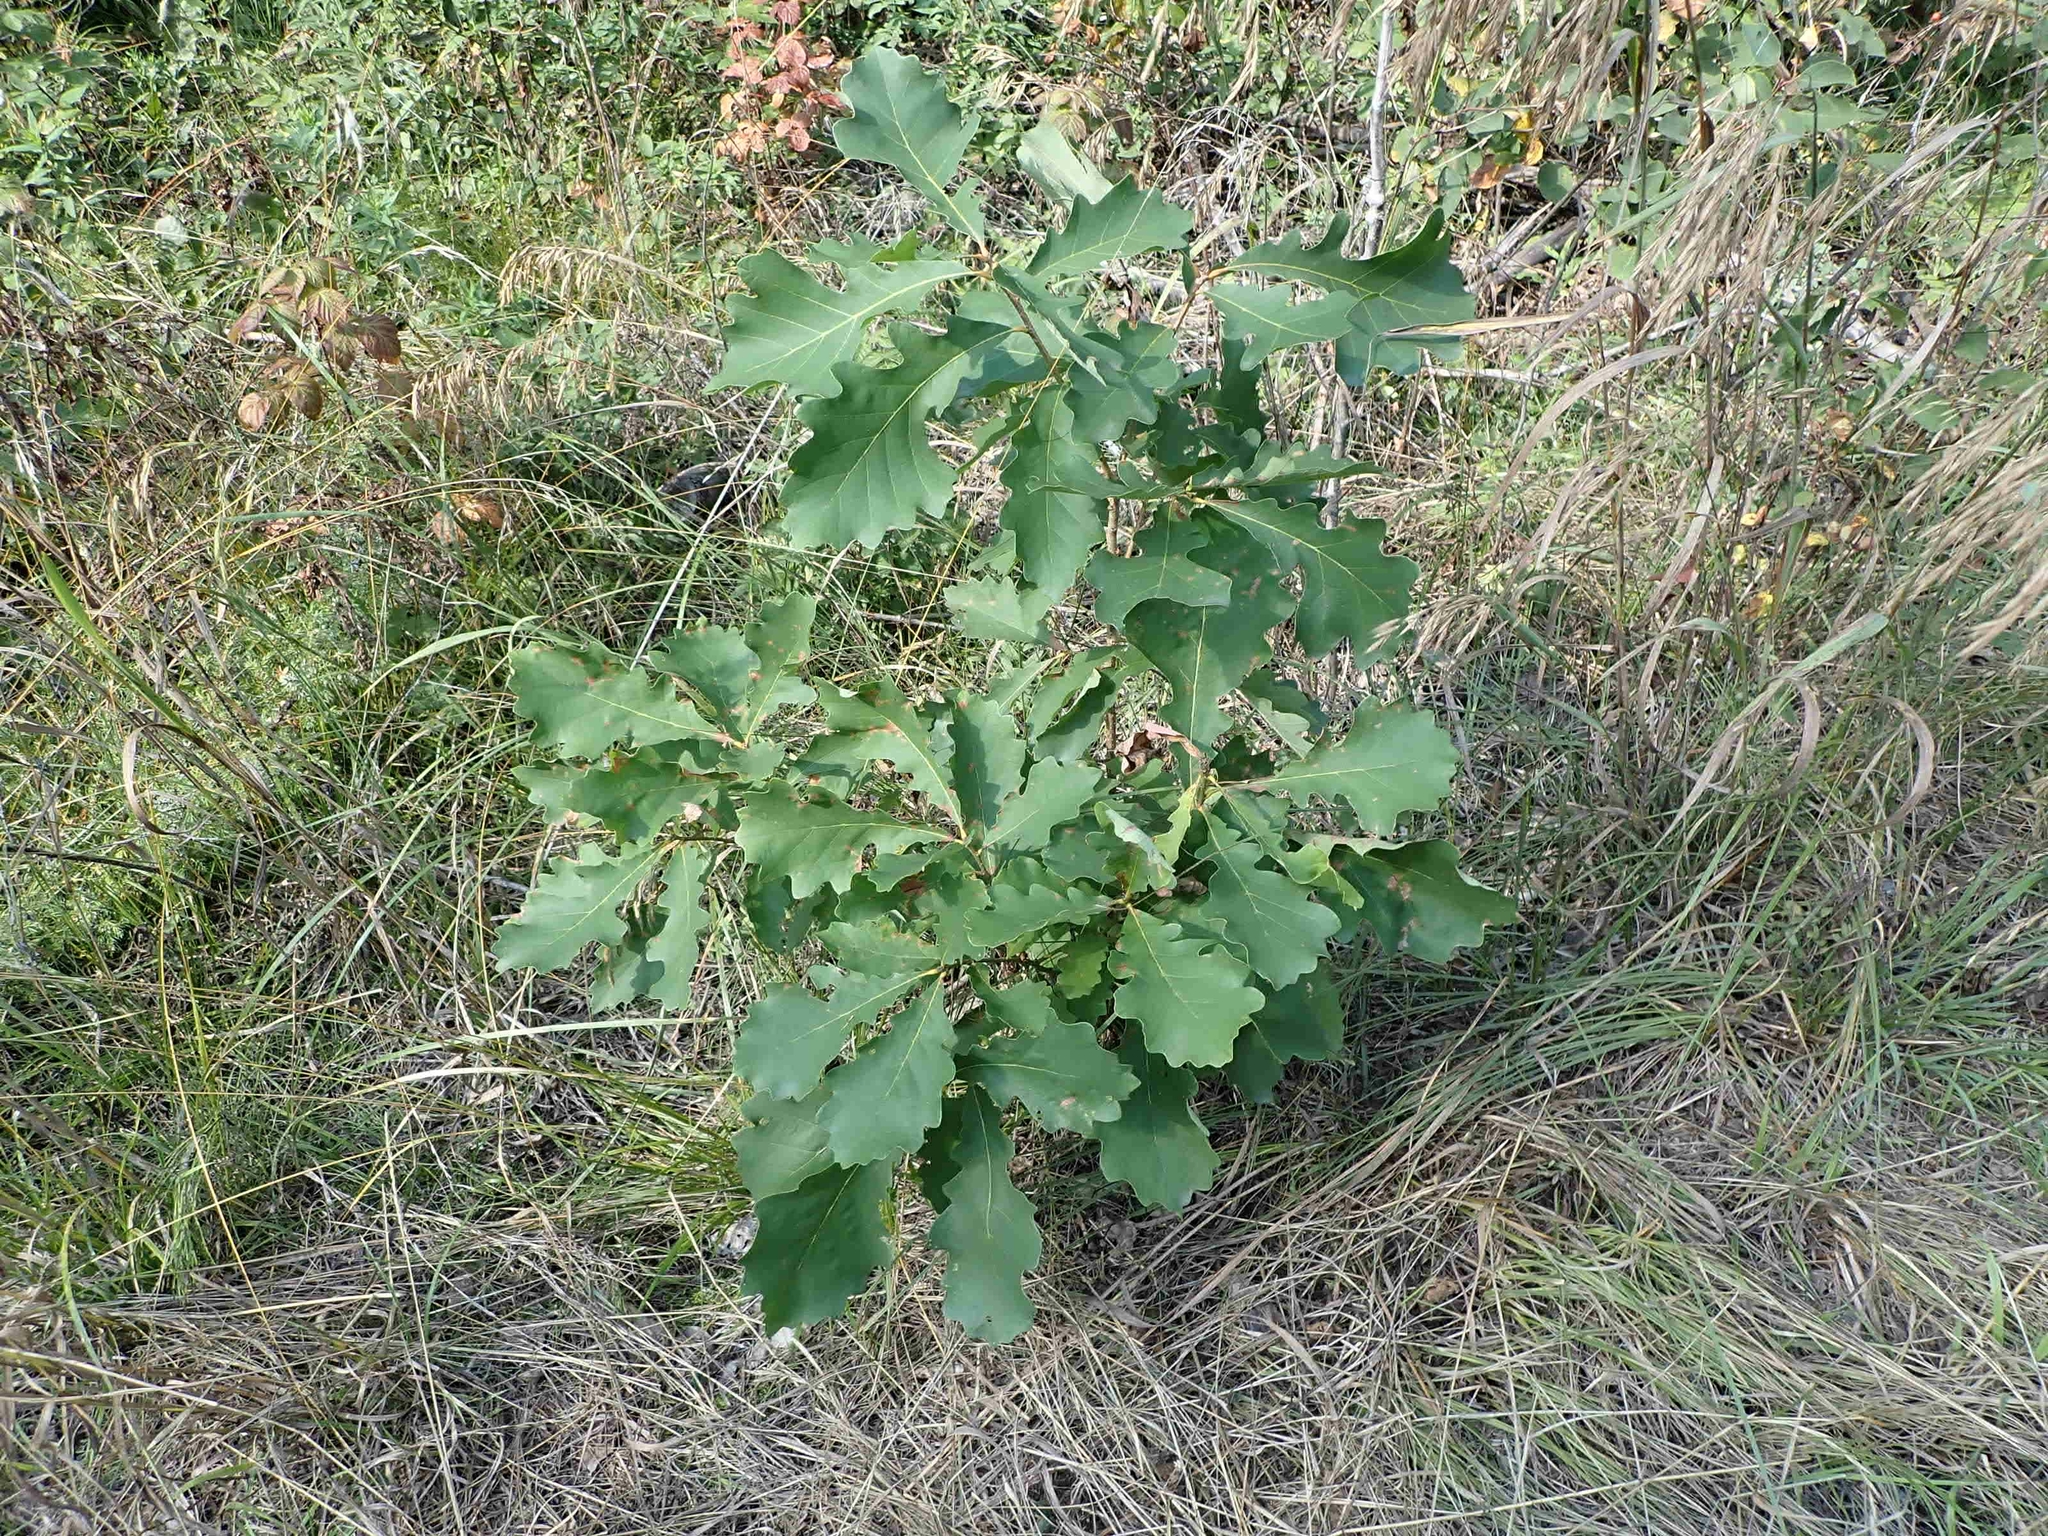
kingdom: Plantae
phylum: Tracheophyta
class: Magnoliopsida
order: Fagales
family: Fagaceae
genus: Quercus
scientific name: Quercus macrocarpa
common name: Bur oak
